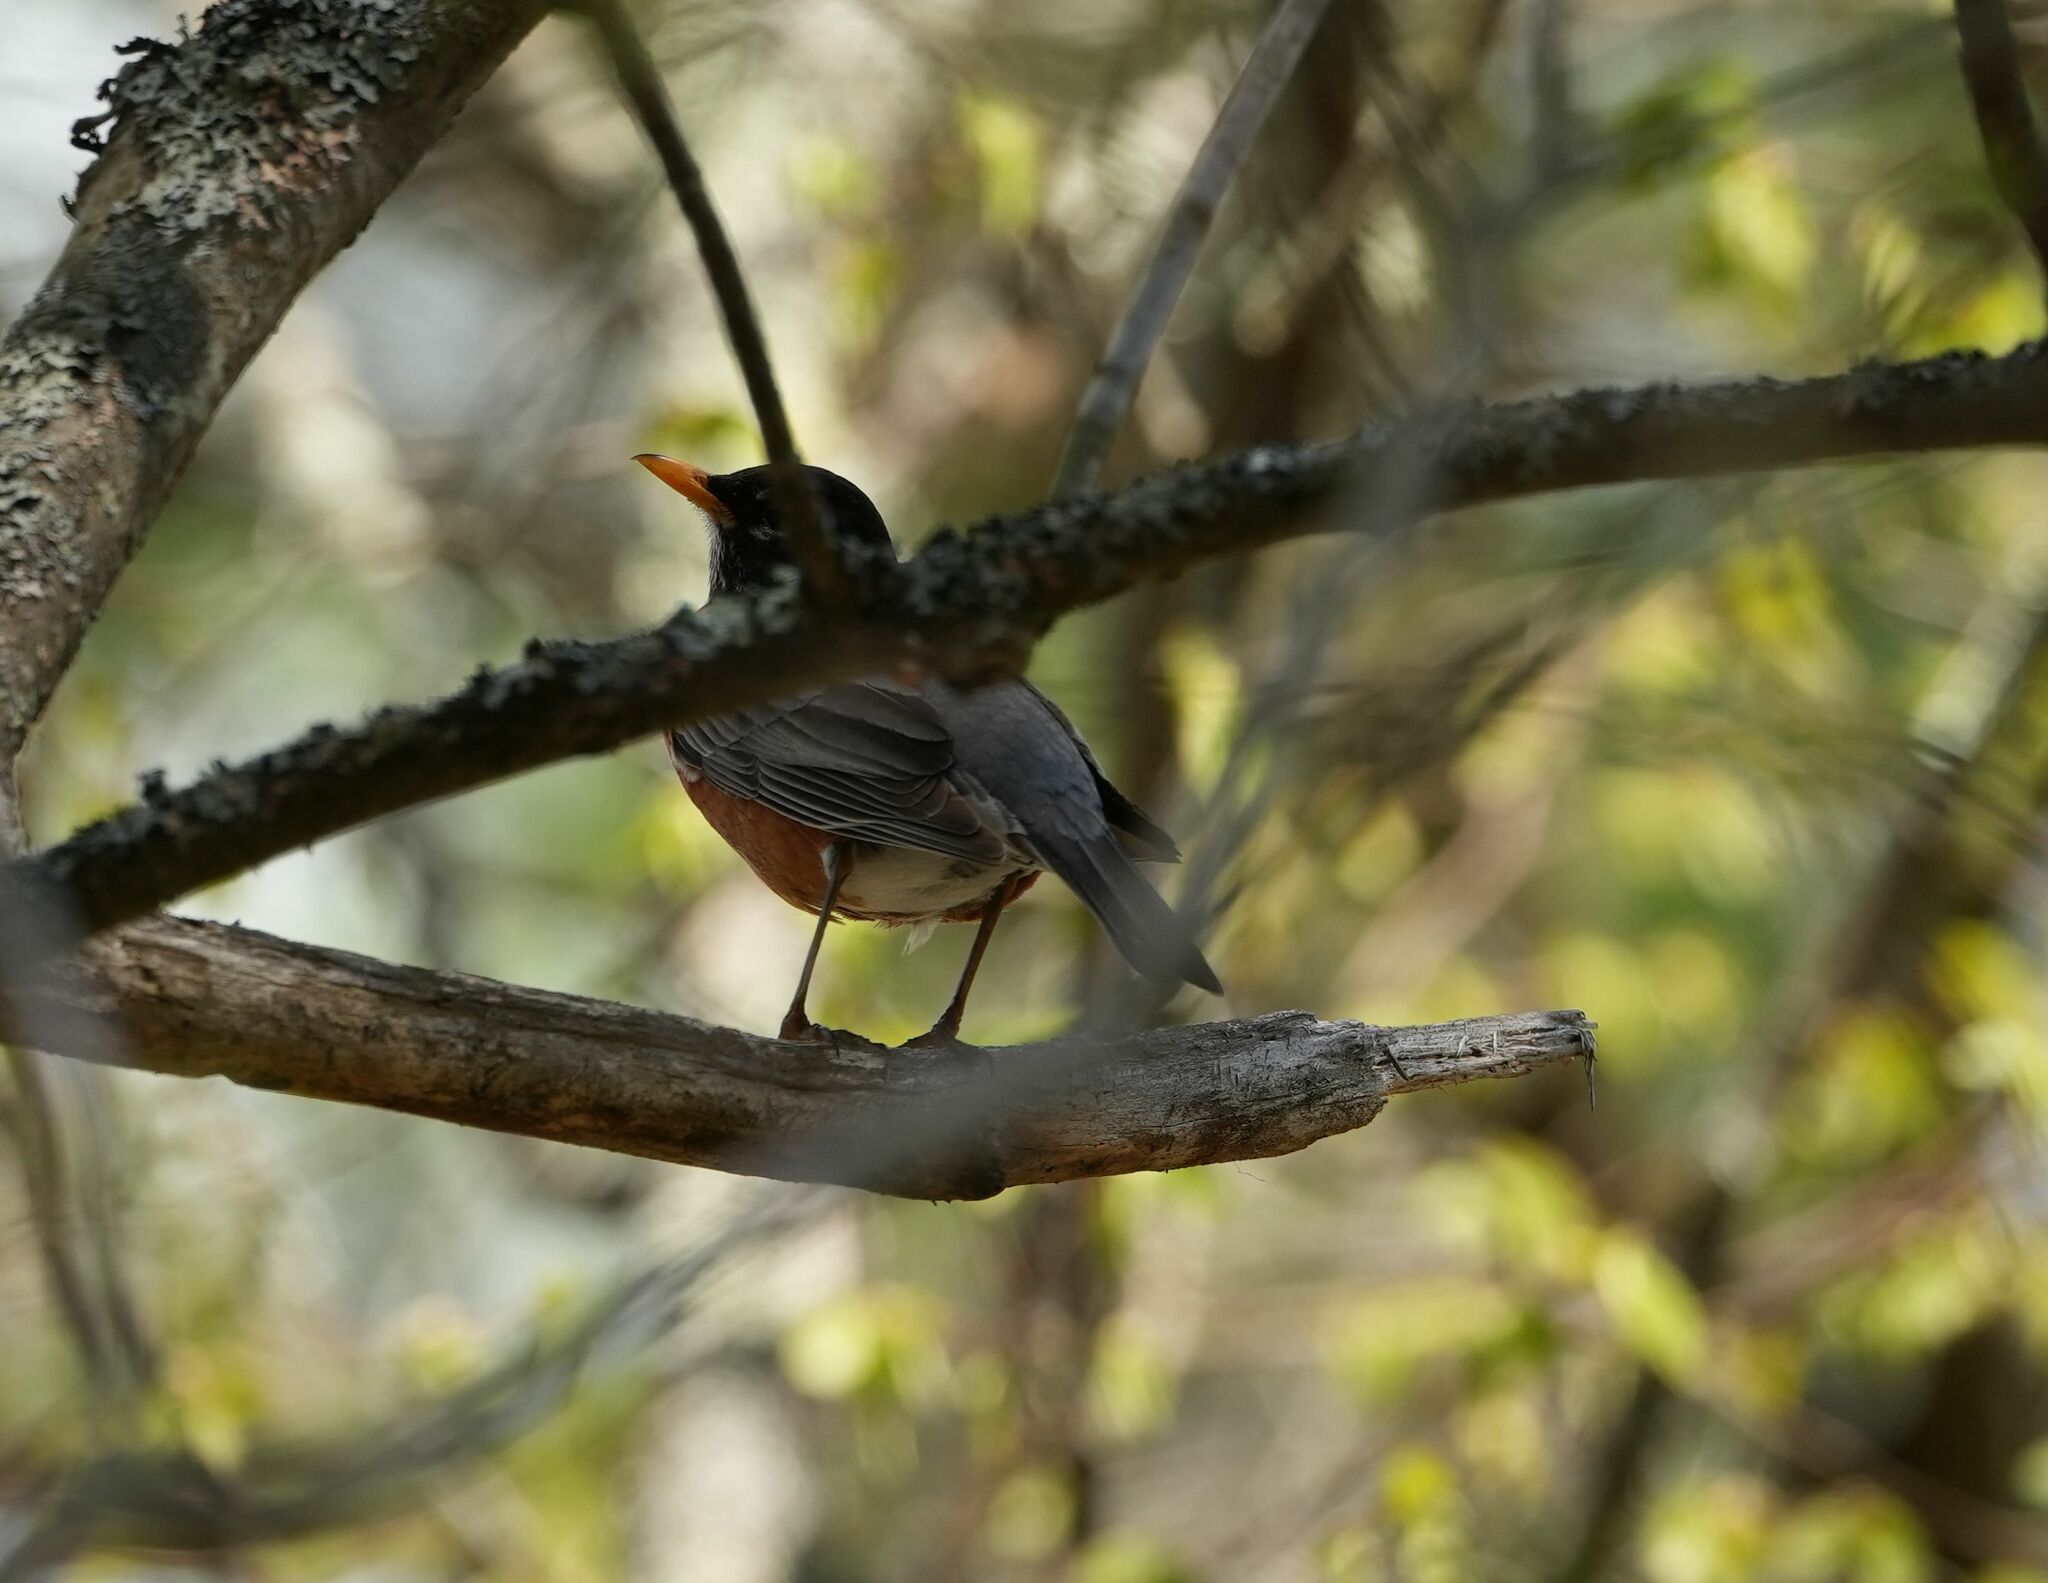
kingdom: Animalia
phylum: Chordata
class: Aves
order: Passeriformes
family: Turdidae
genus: Turdus
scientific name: Turdus migratorius
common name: American robin
